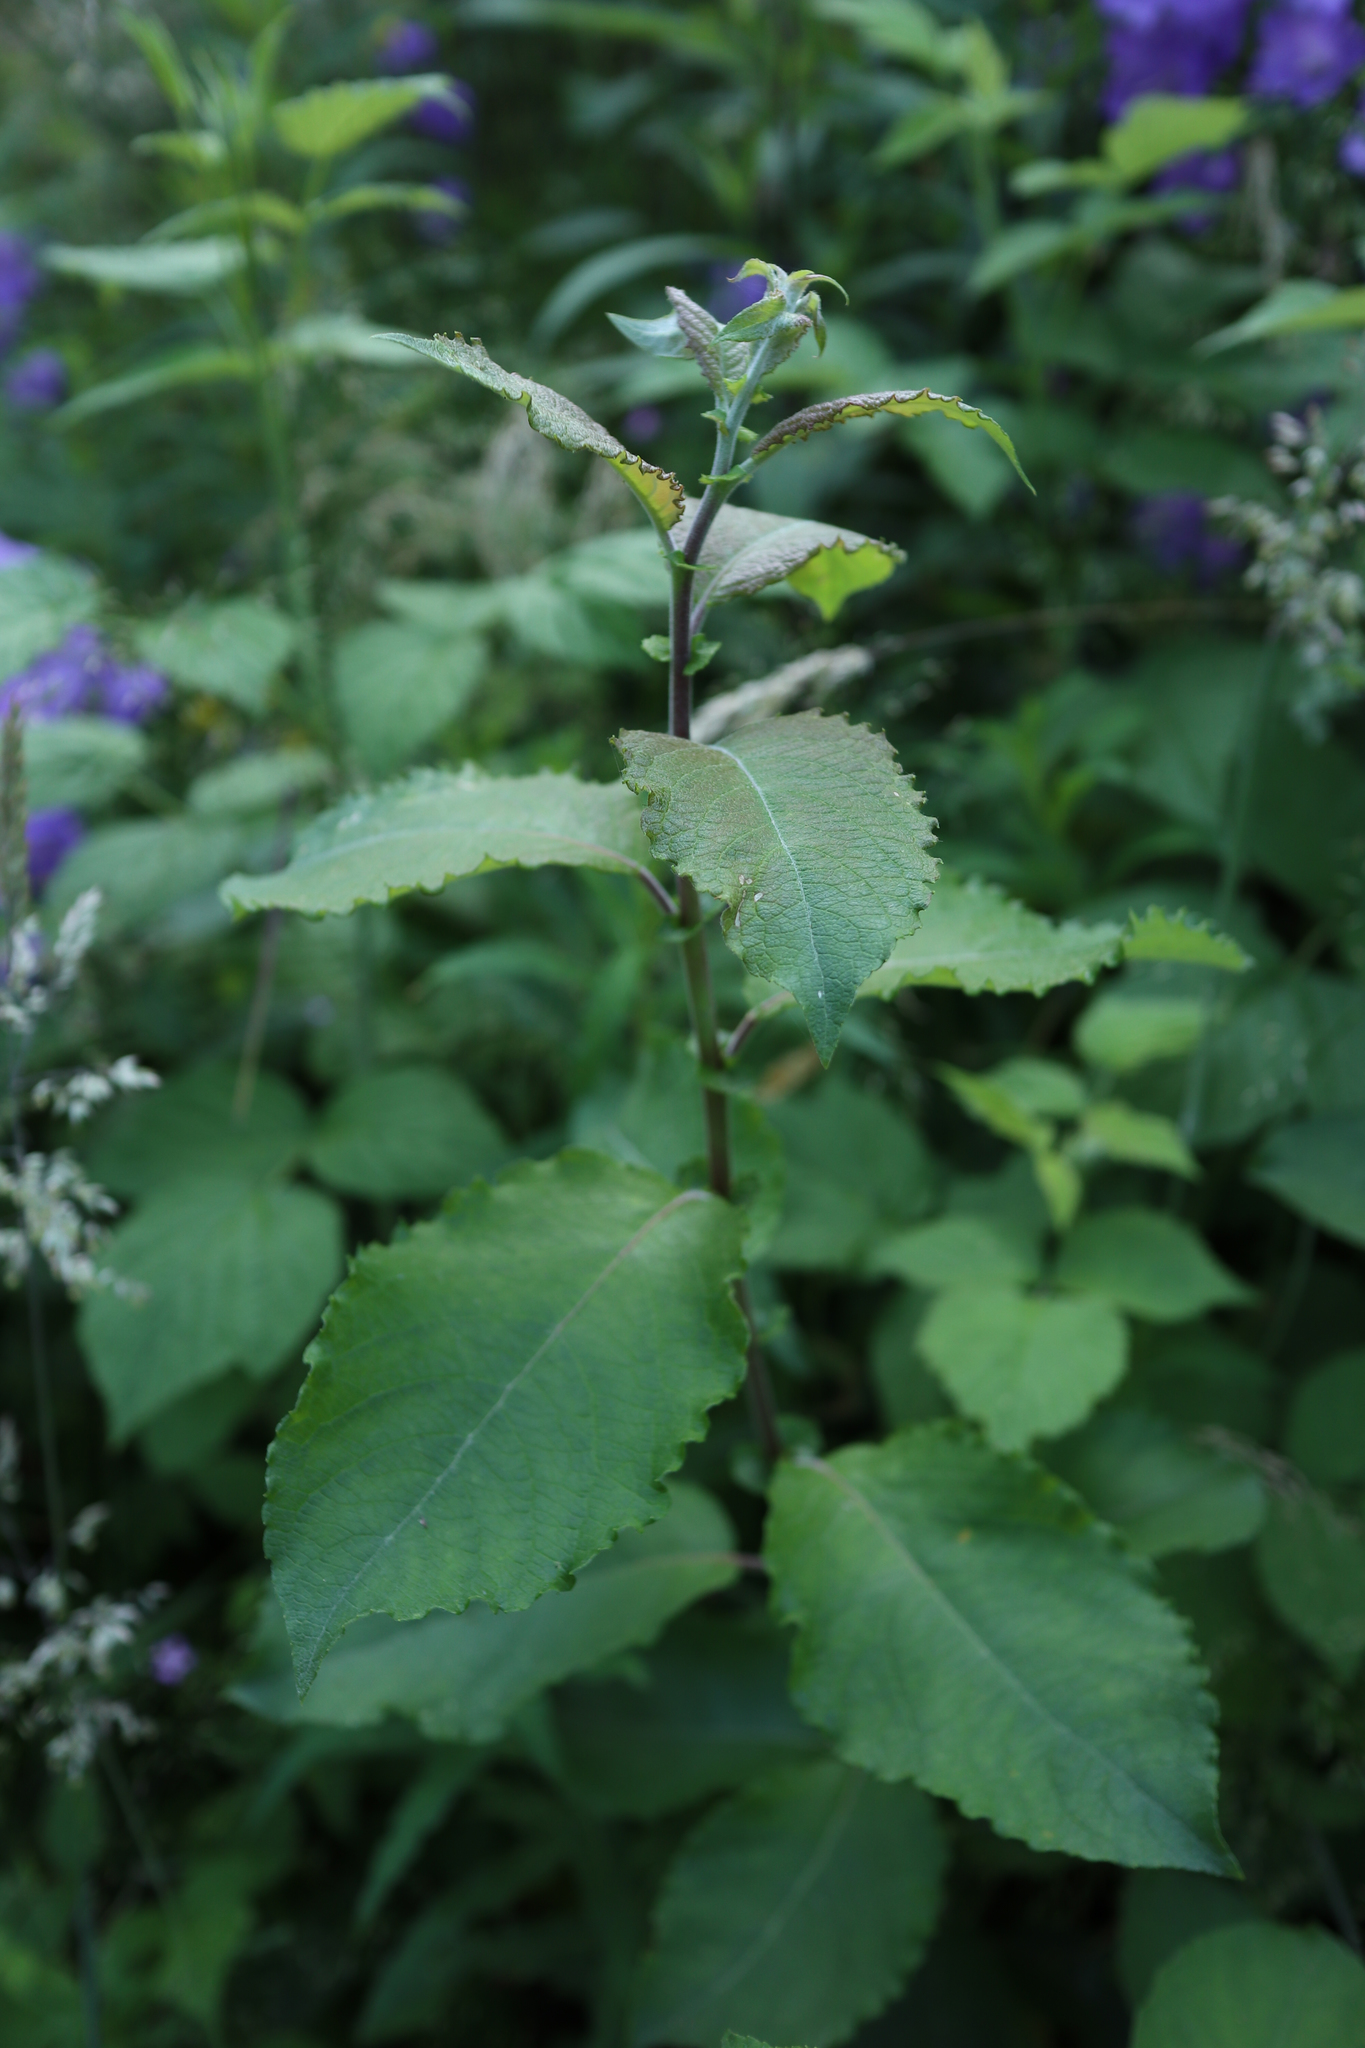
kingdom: Plantae
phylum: Tracheophyta
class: Magnoliopsida
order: Malpighiales
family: Salicaceae
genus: Salix
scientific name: Salix caprea
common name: Goat willow
